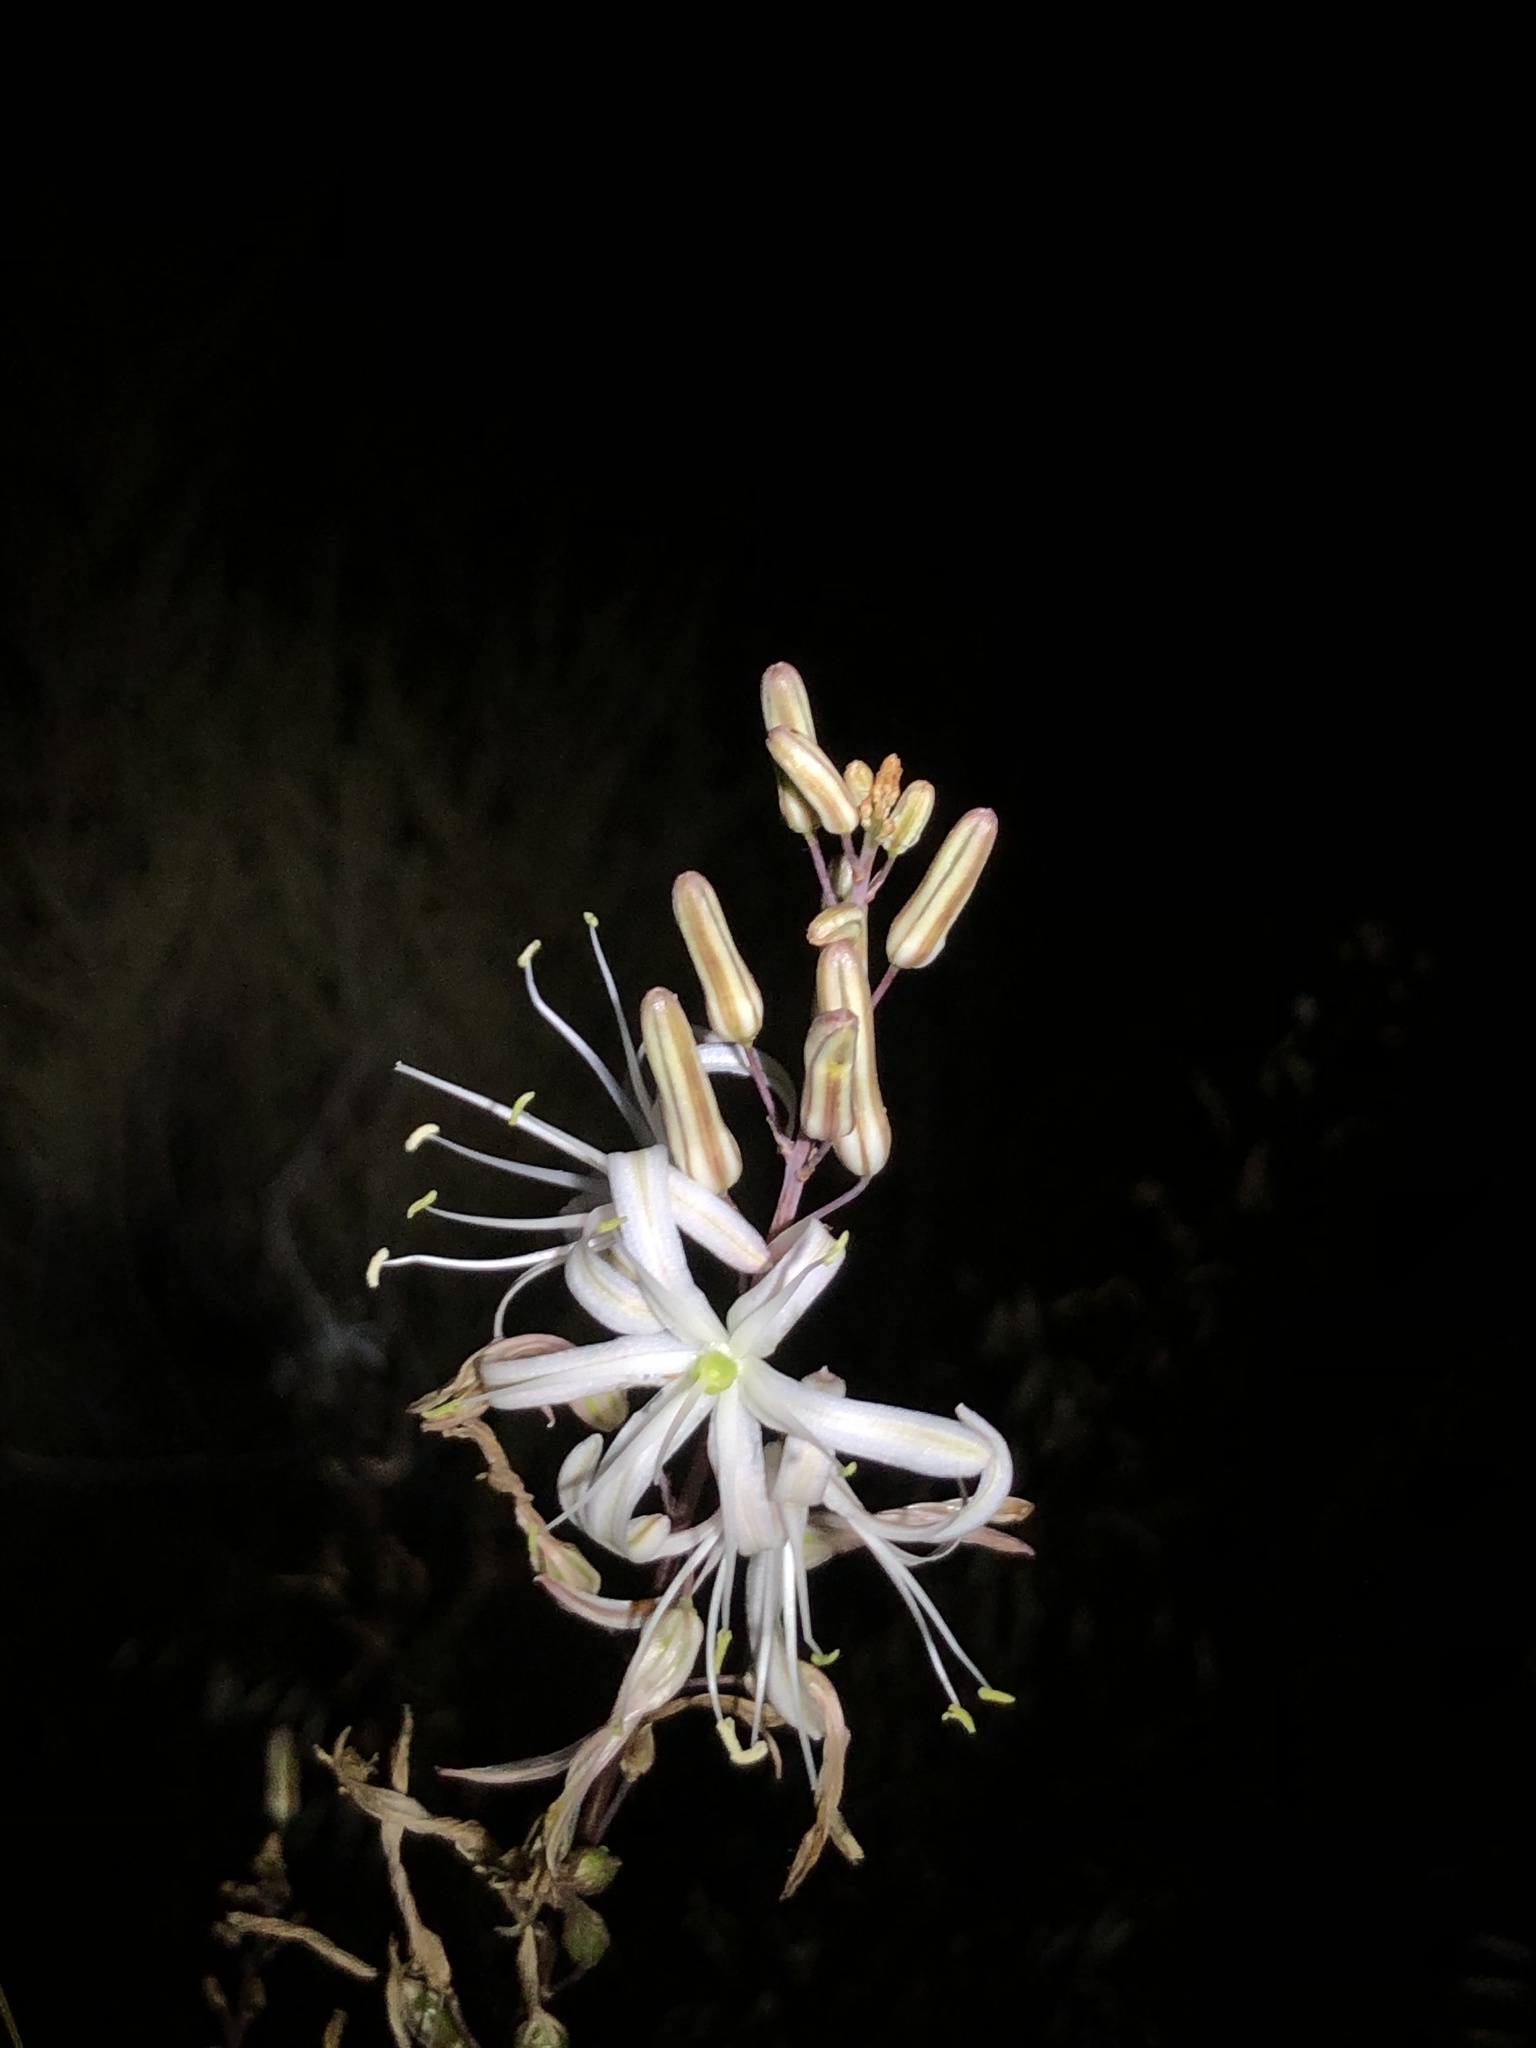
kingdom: Plantae
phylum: Tracheophyta
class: Liliopsida
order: Asparagales
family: Asparagaceae
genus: Chlorogalum
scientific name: Chlorogalum pomeridianum
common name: Amole
